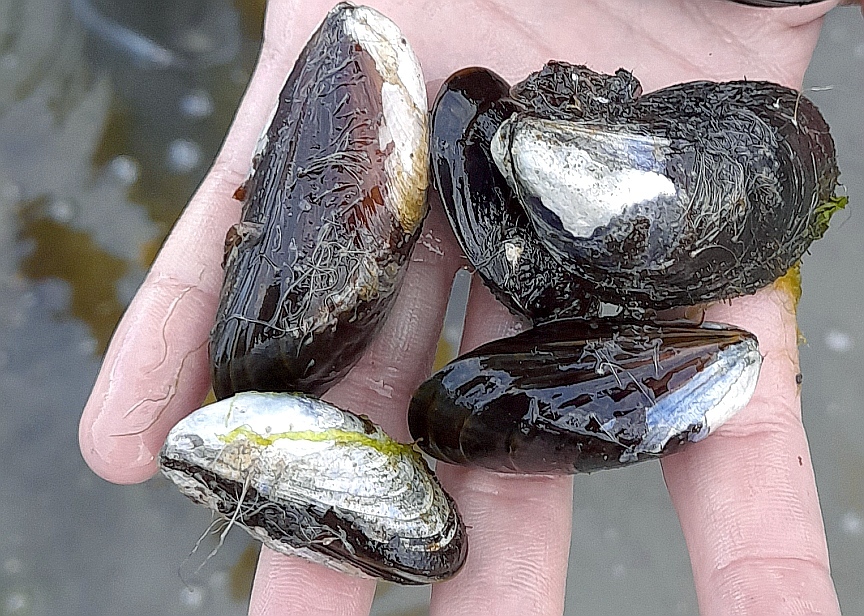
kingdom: Animalia
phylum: Mollusca
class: Bivalvia
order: Mytilida
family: Mytilidae
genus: Mytilus
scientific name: Mytilus edulis
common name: Blue mussel
